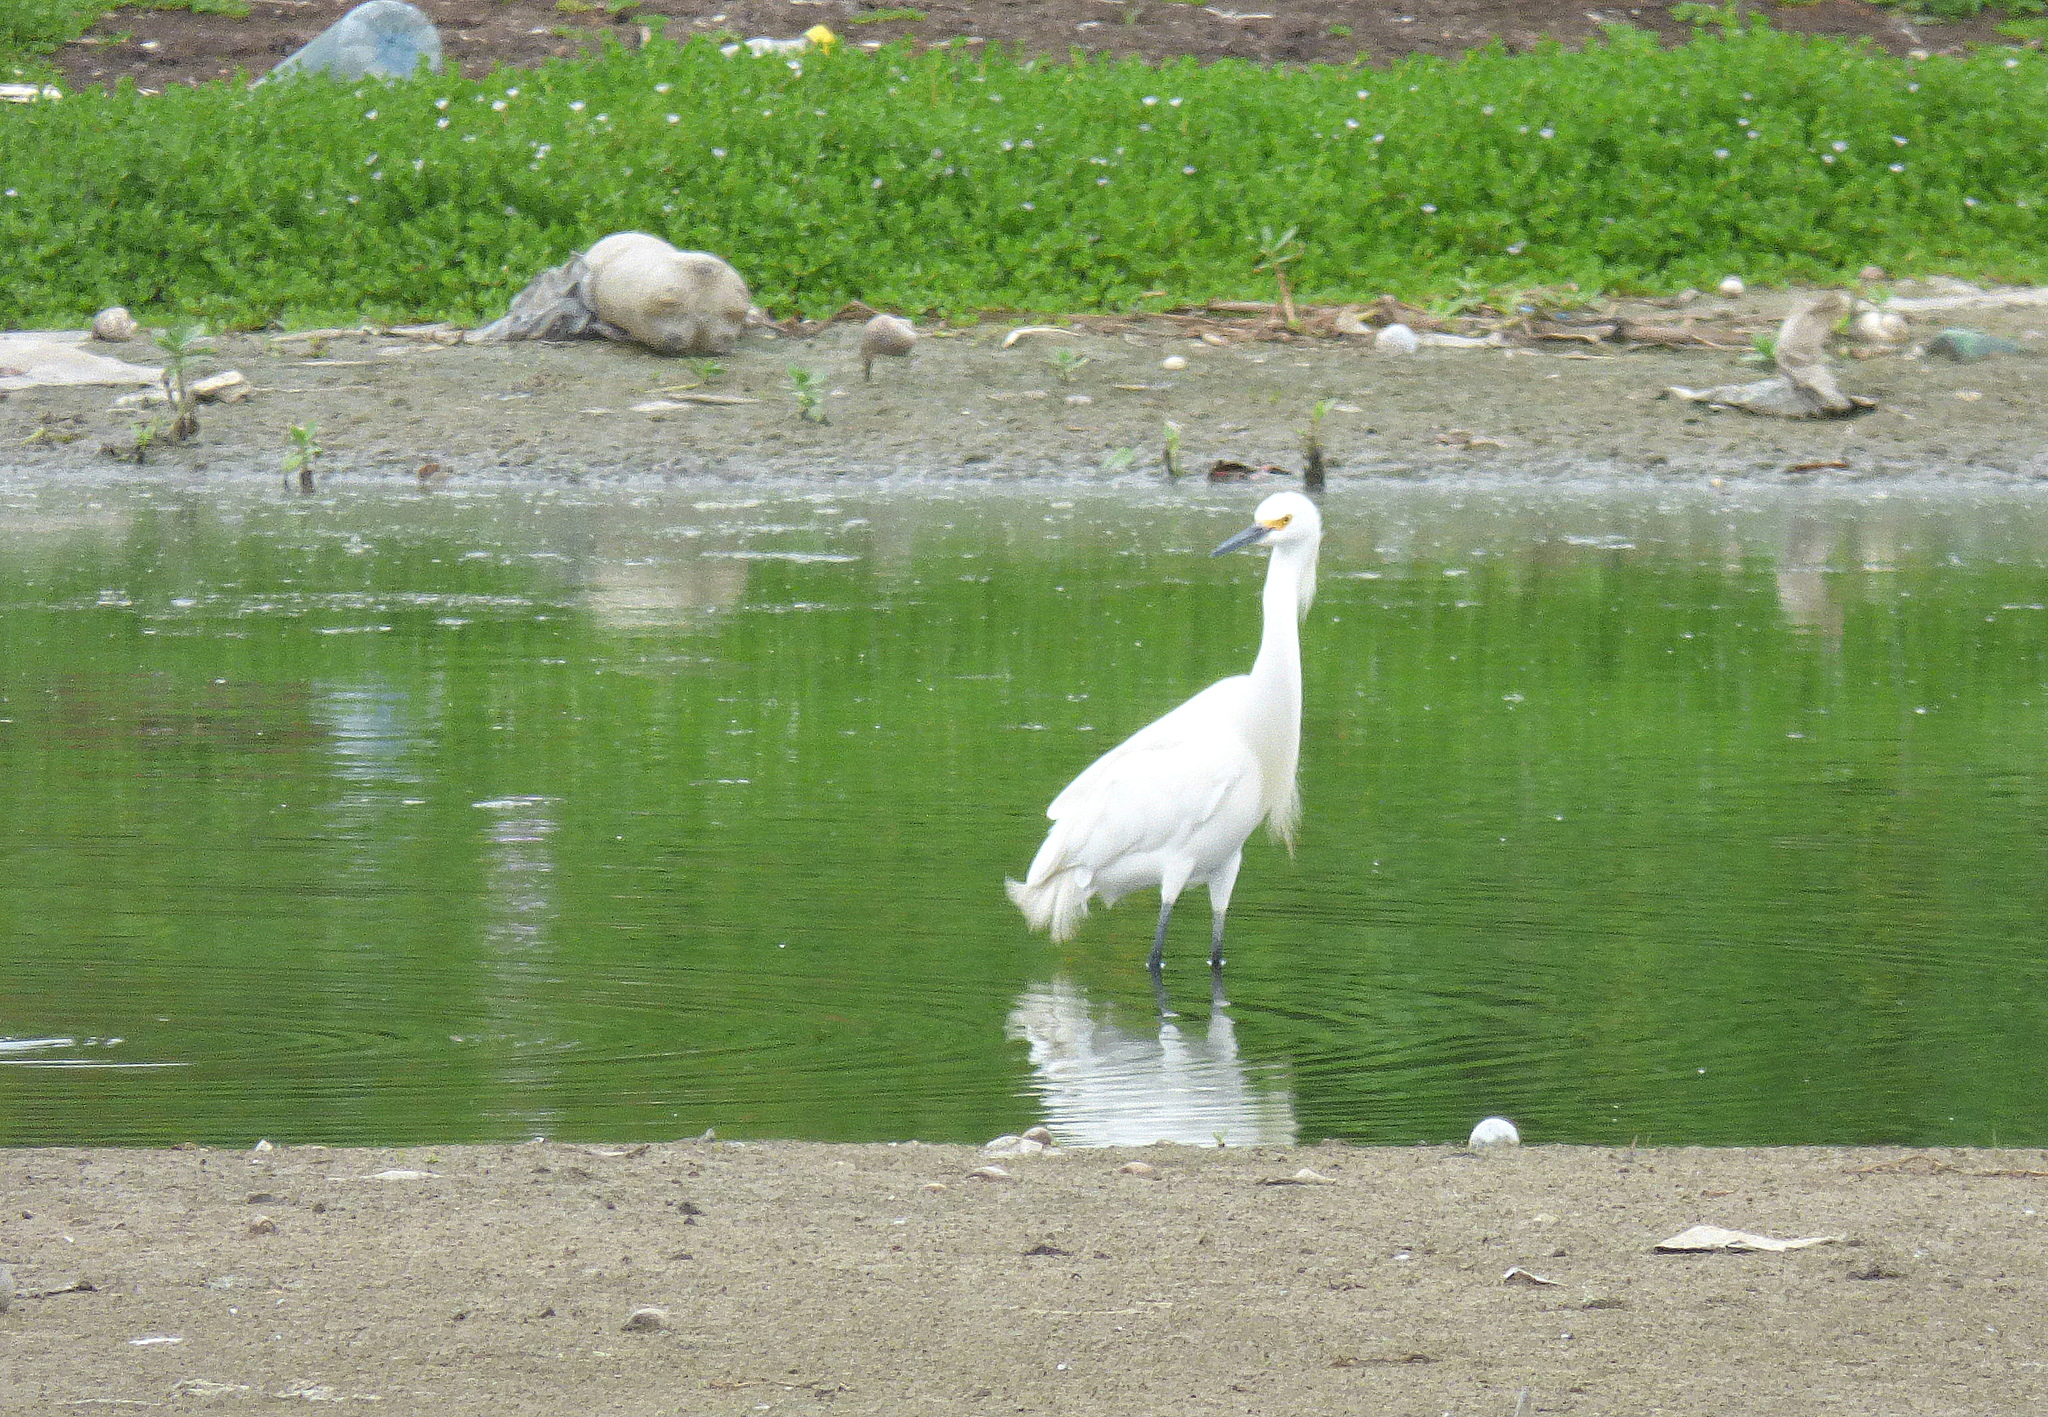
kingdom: Animalia
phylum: Chordata
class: Aves
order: Pelecaniformes
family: Ardeidae
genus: Egretta
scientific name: Egretta thula
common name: Snowy egret
